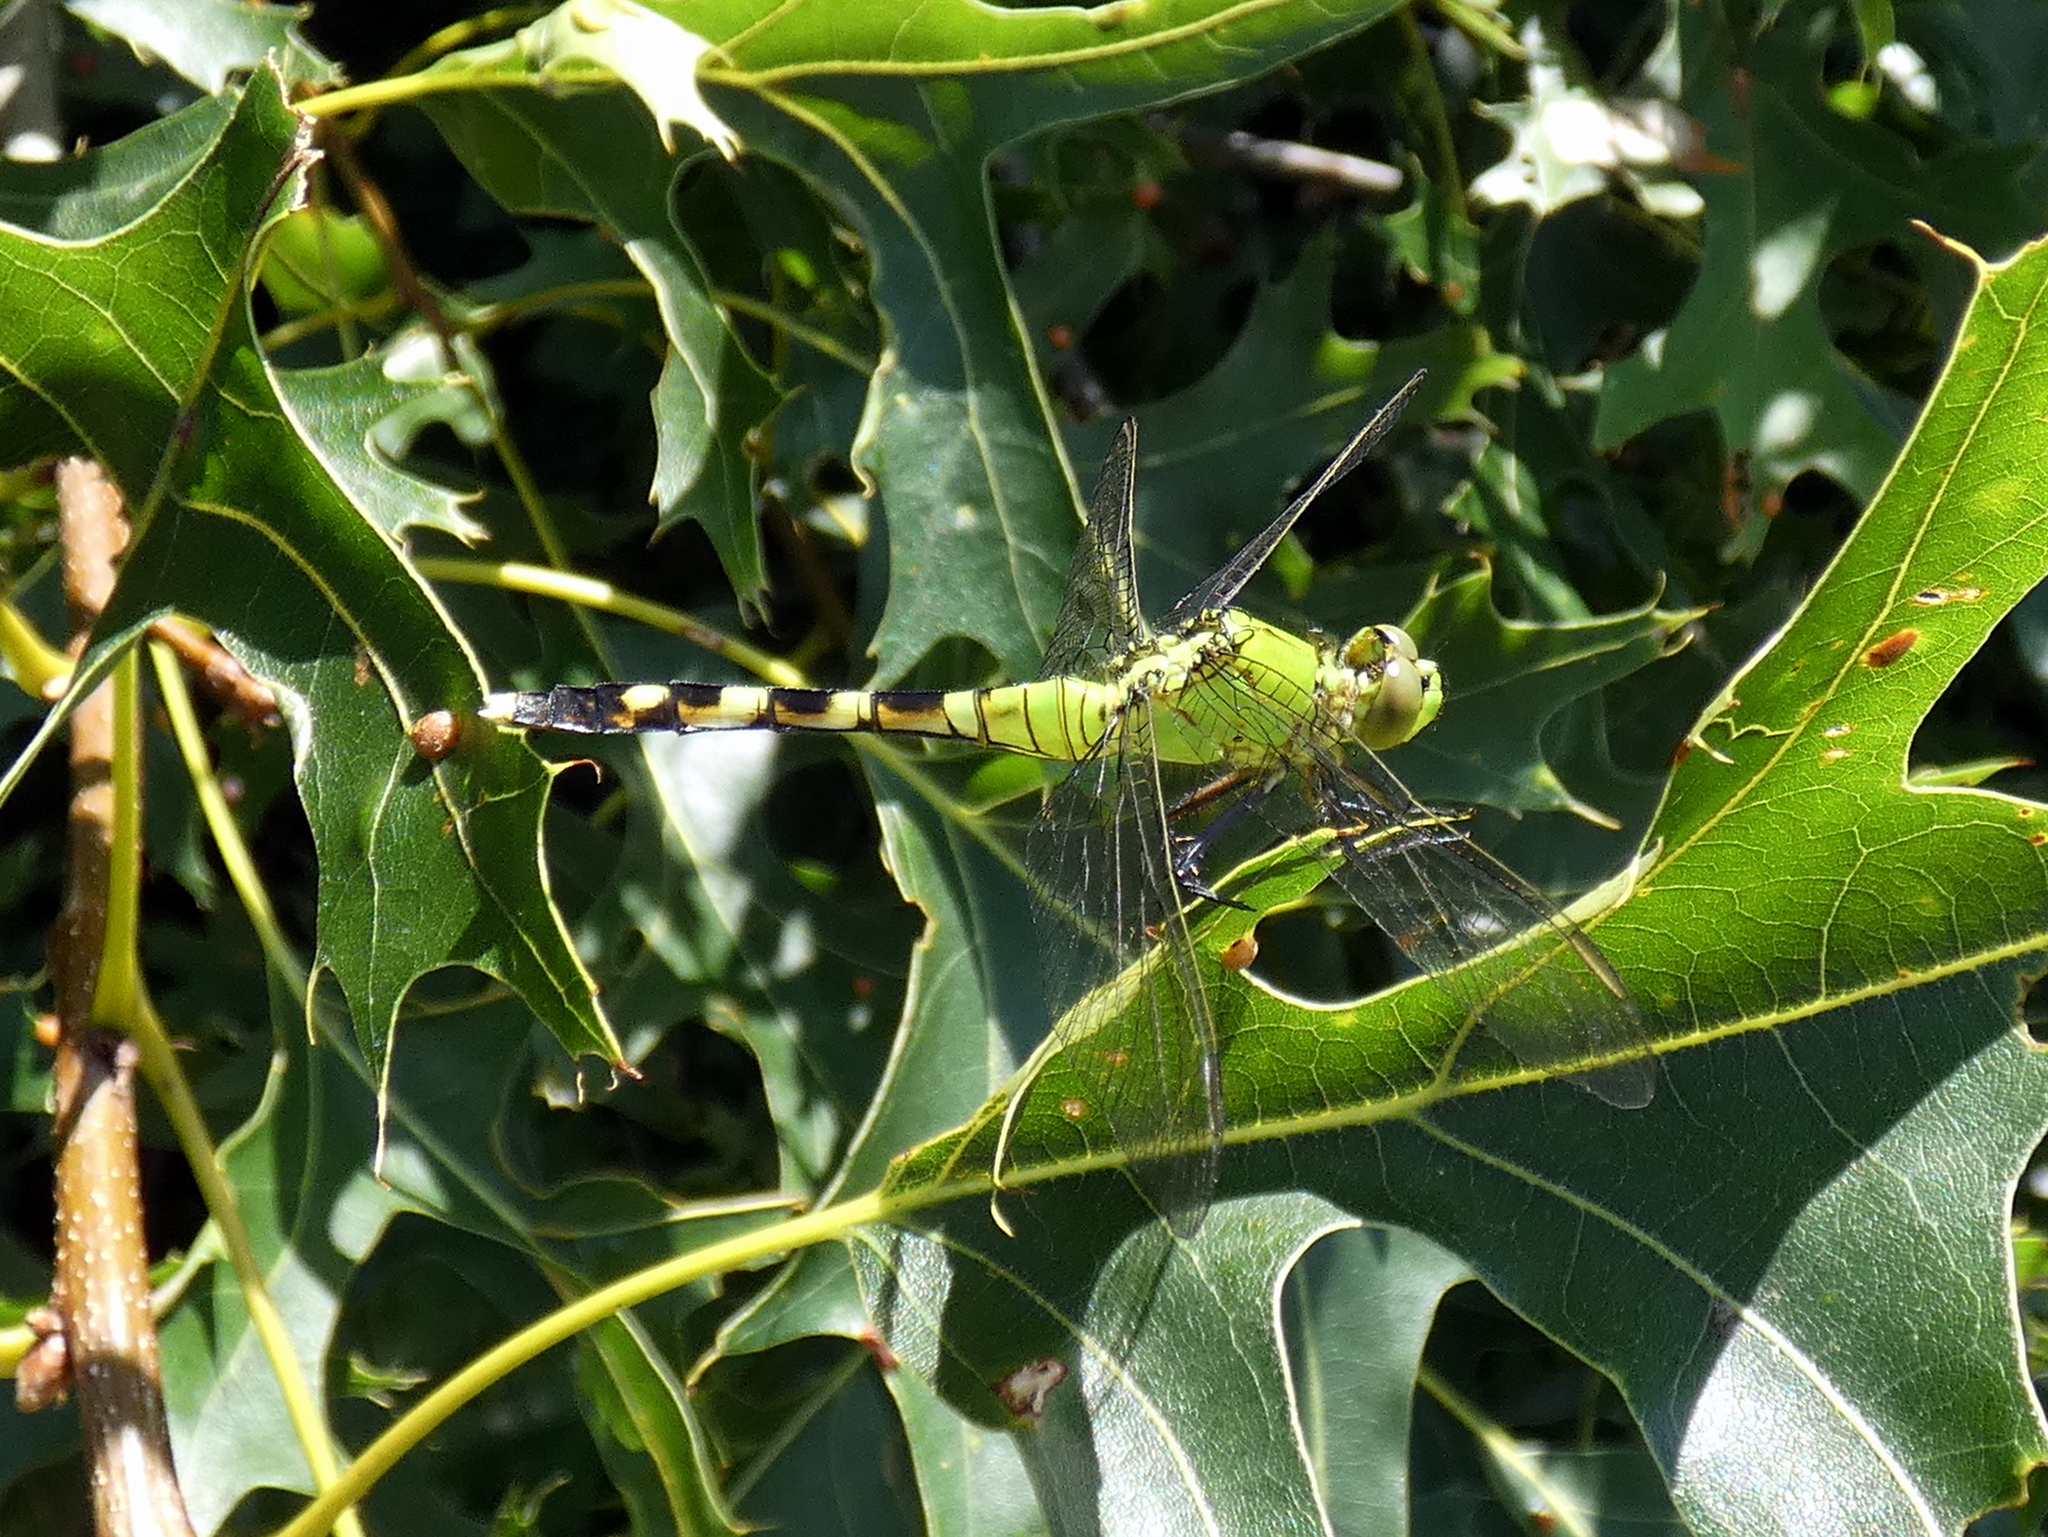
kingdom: Animalia
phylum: Arthropoda
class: Insecta
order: Odonata
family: Libellulidae
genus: Erythemis
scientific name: Erythemis simplicicollis
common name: Eastern pondhawk
